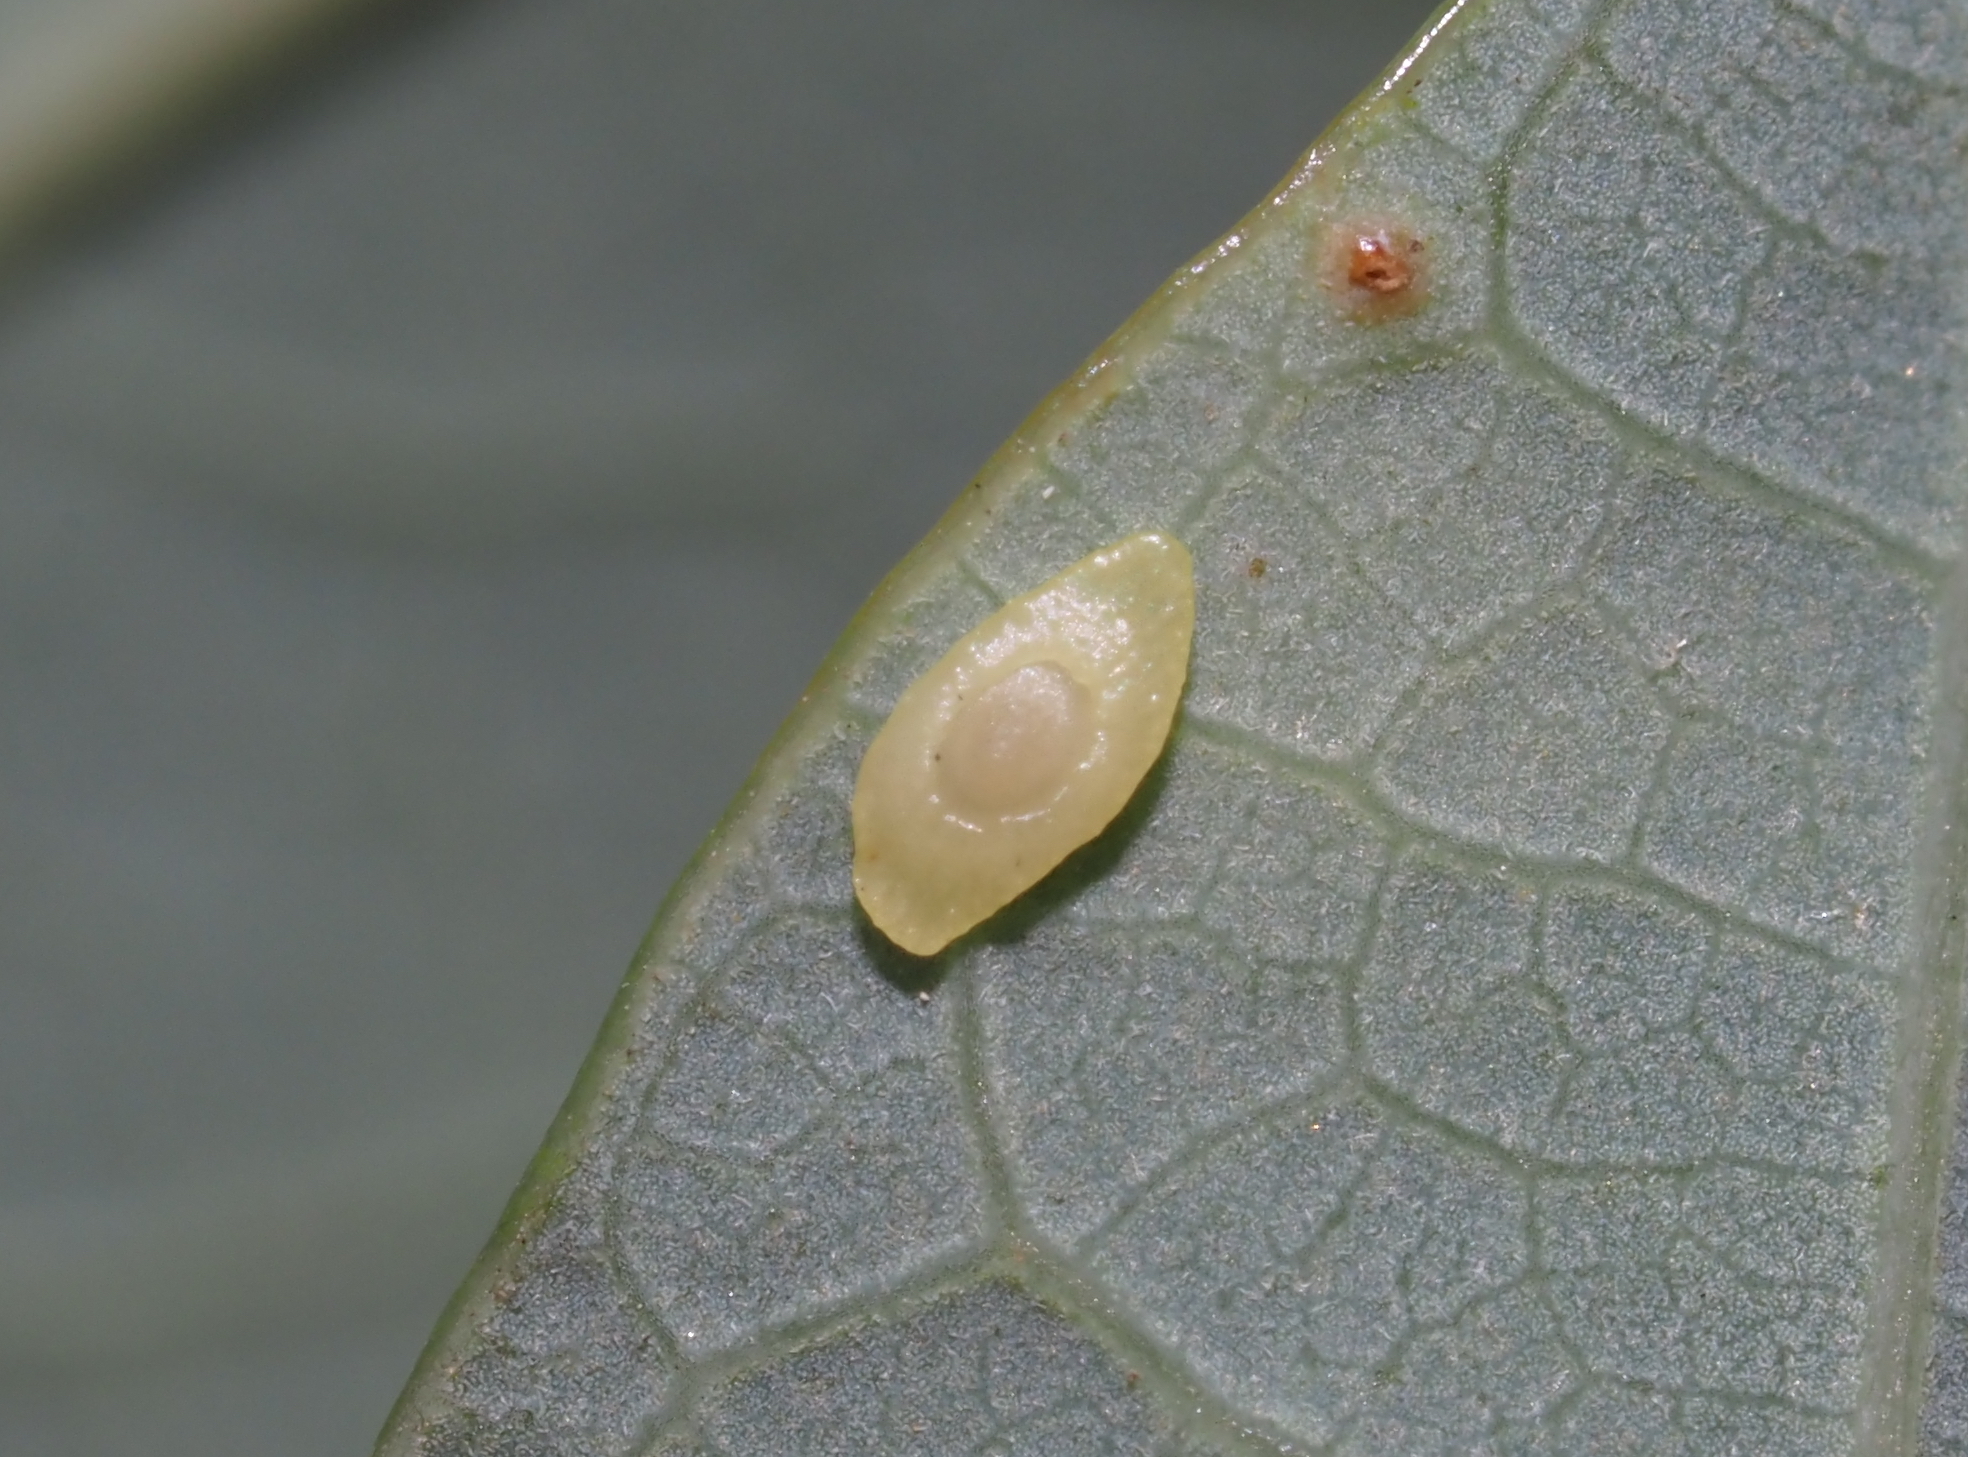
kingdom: Animalia
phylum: Arthropoda
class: Insecta
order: Hymenoptera
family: Cynipidae
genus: Phylloteras
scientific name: Phylloteras
